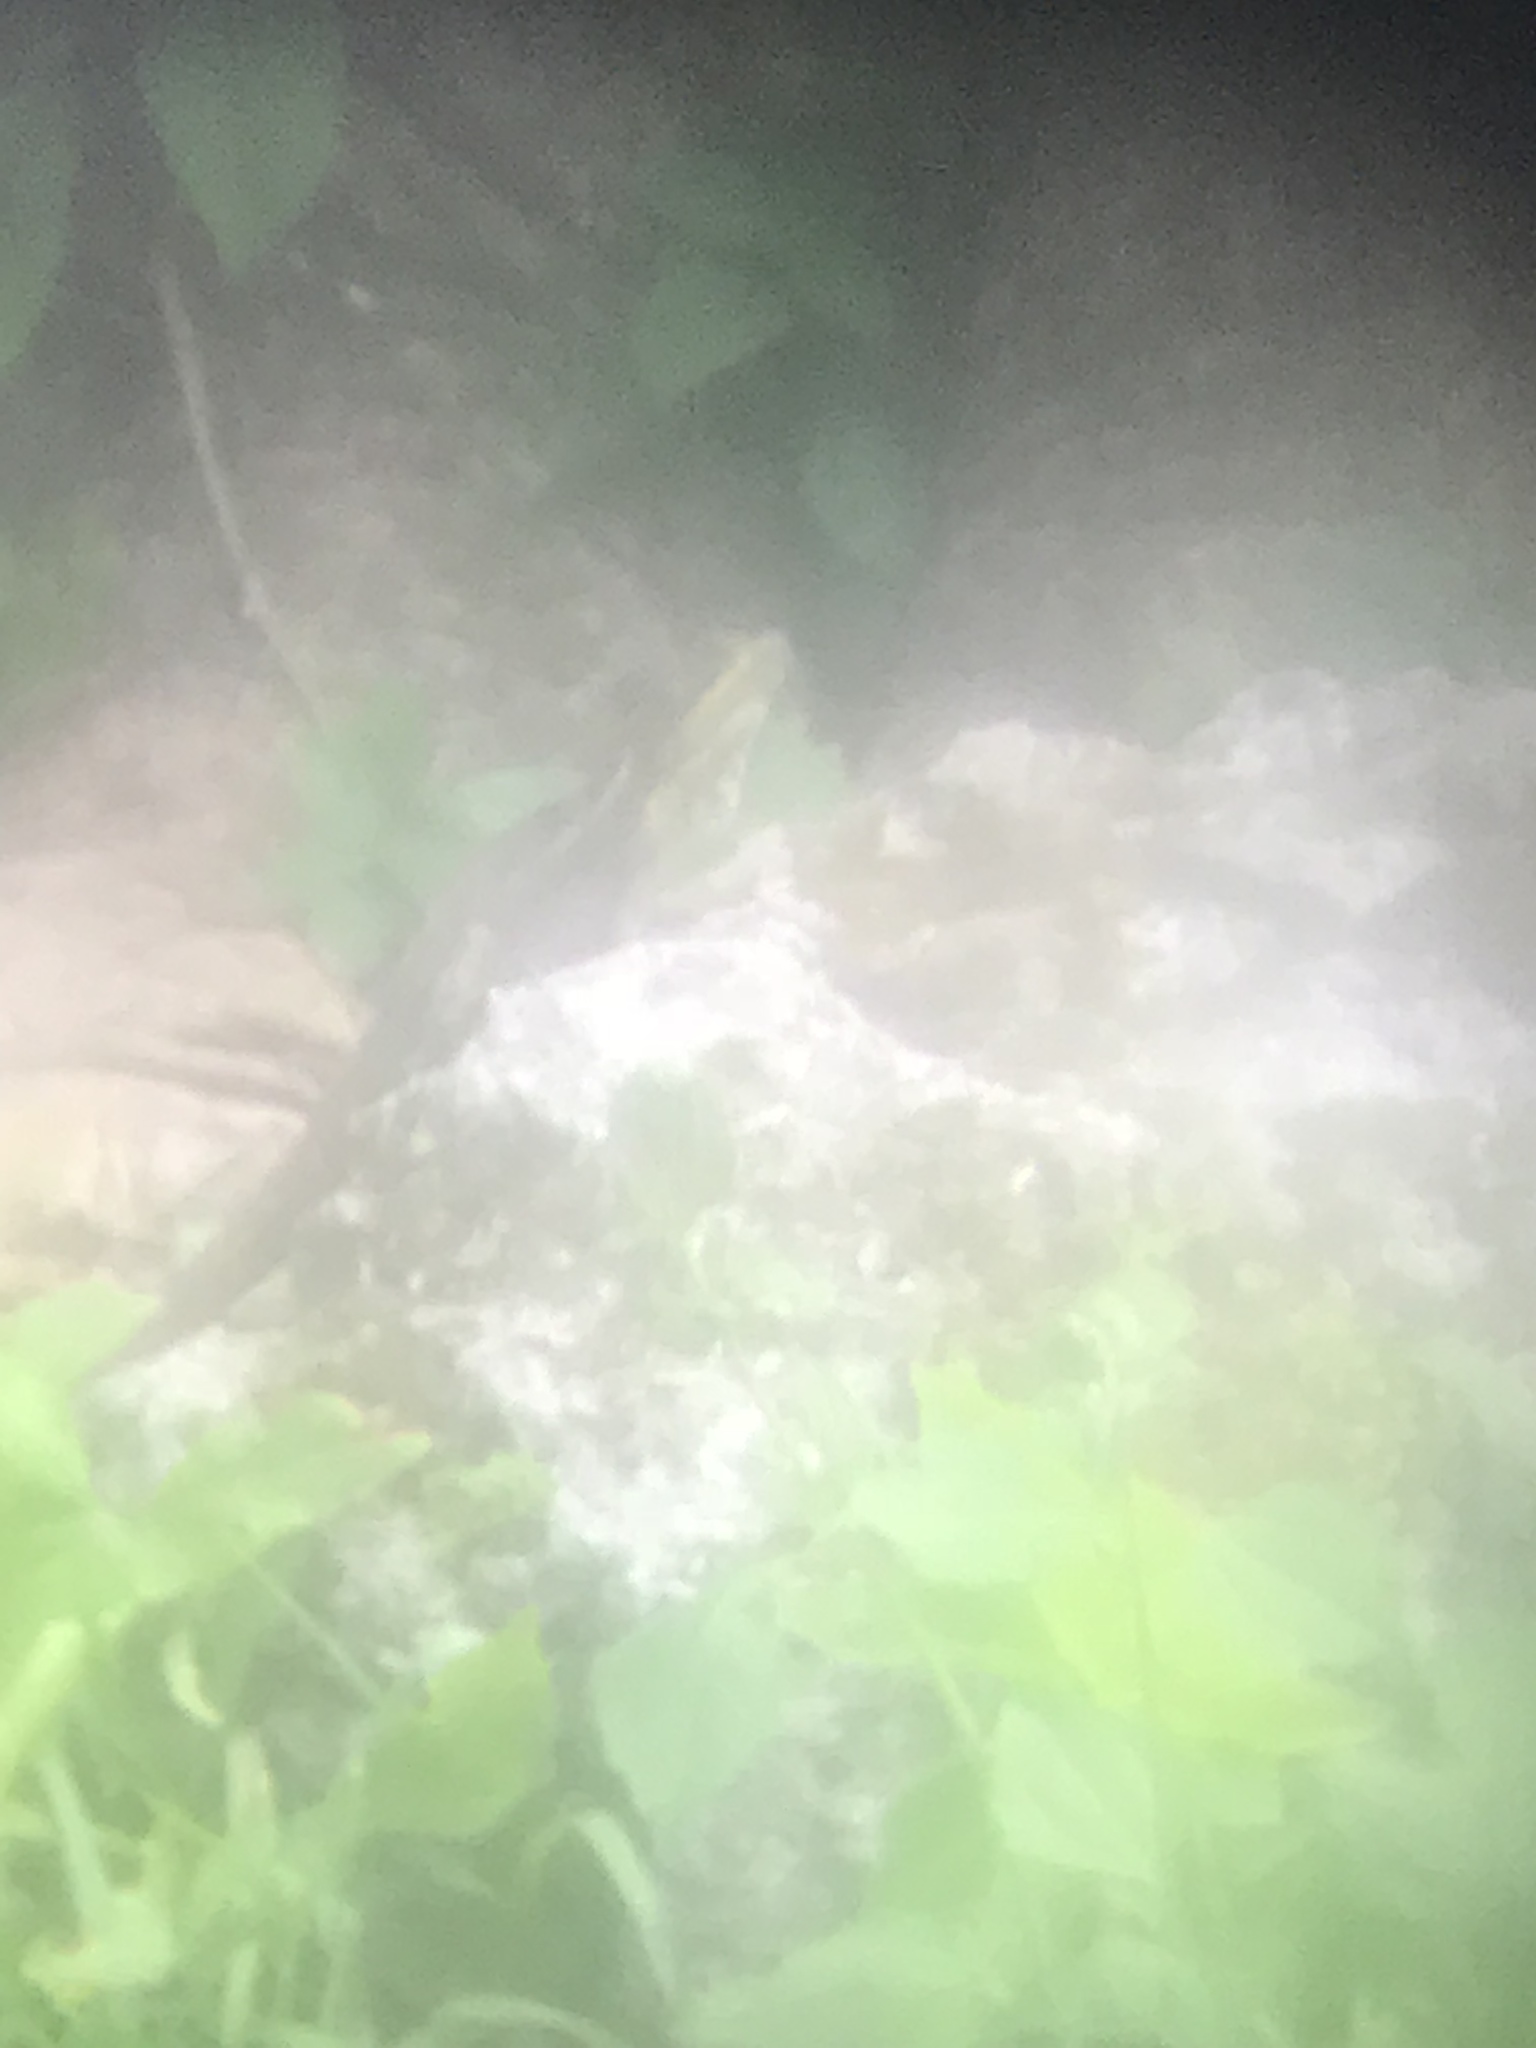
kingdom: Animalia
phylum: Chordata
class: Squamata
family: Corytophanidae
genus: Basiliscus
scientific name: Basiliscus vittatus
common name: Brown basilisk
